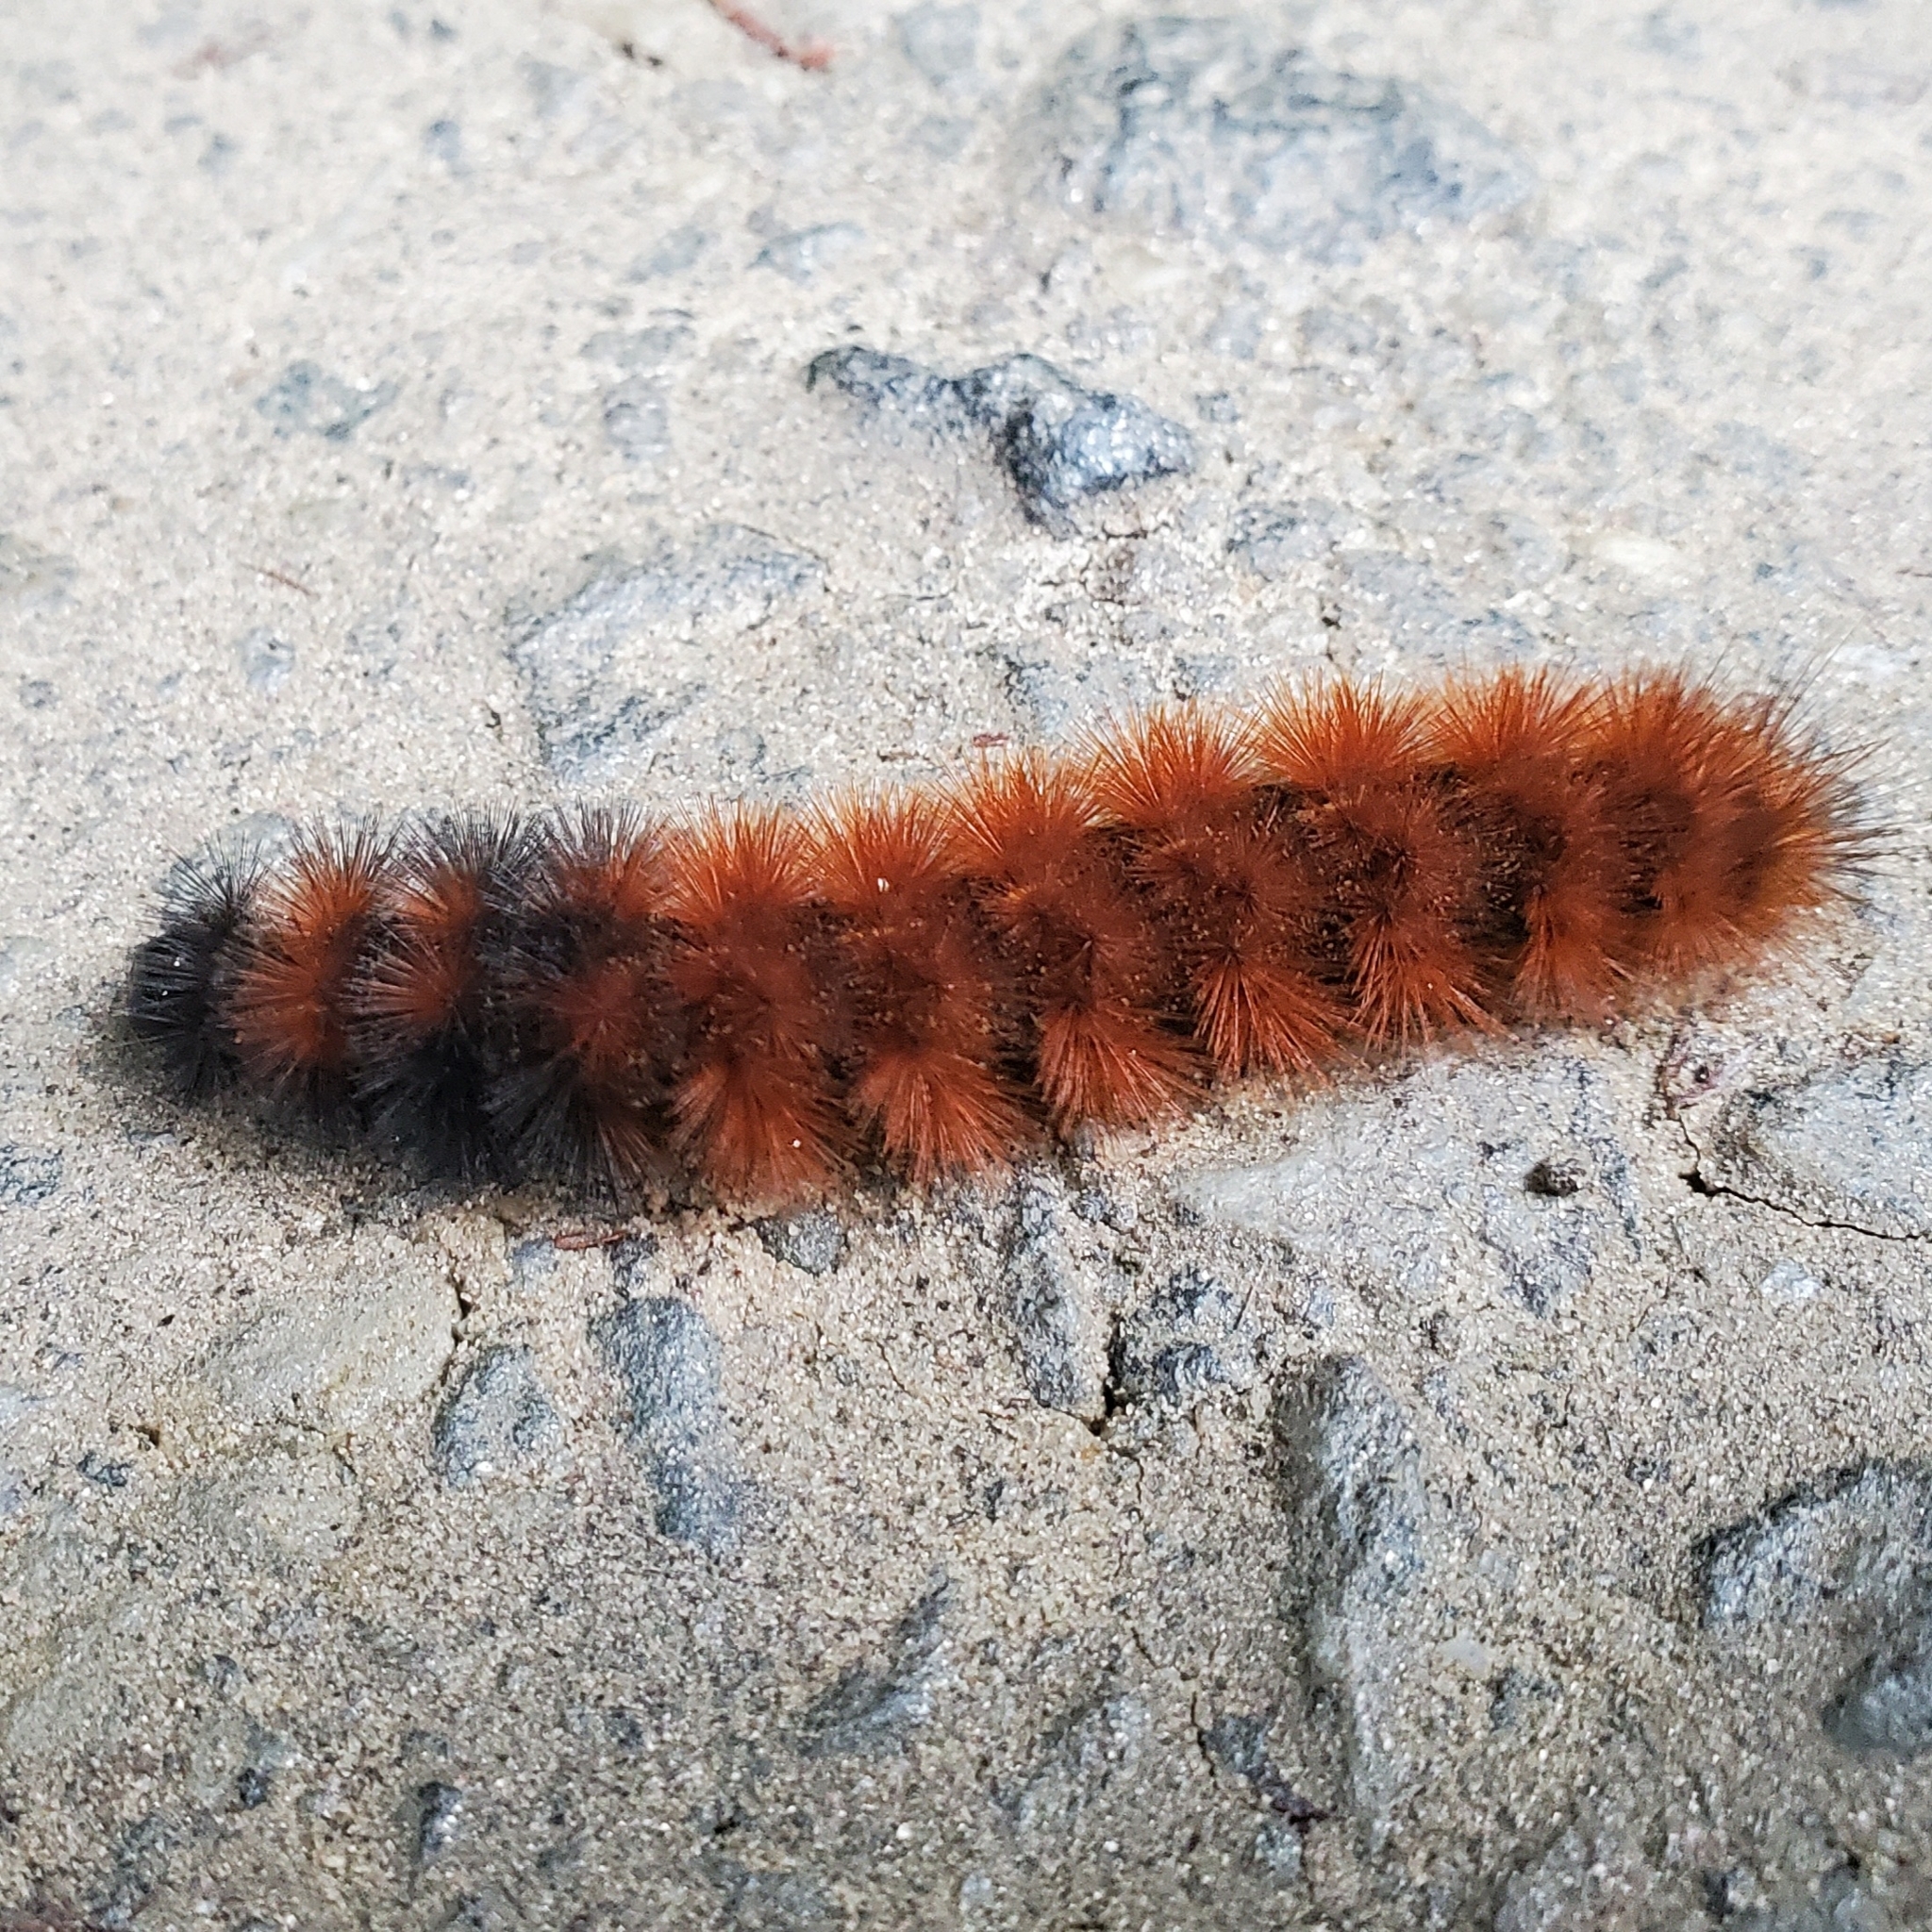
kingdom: Animalia
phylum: Arthropoda
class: Insecta
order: Lepidoptera
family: Erebidae
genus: Pyrrharctia
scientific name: Pyrrharctia isabella
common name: Isabella tiger moth
